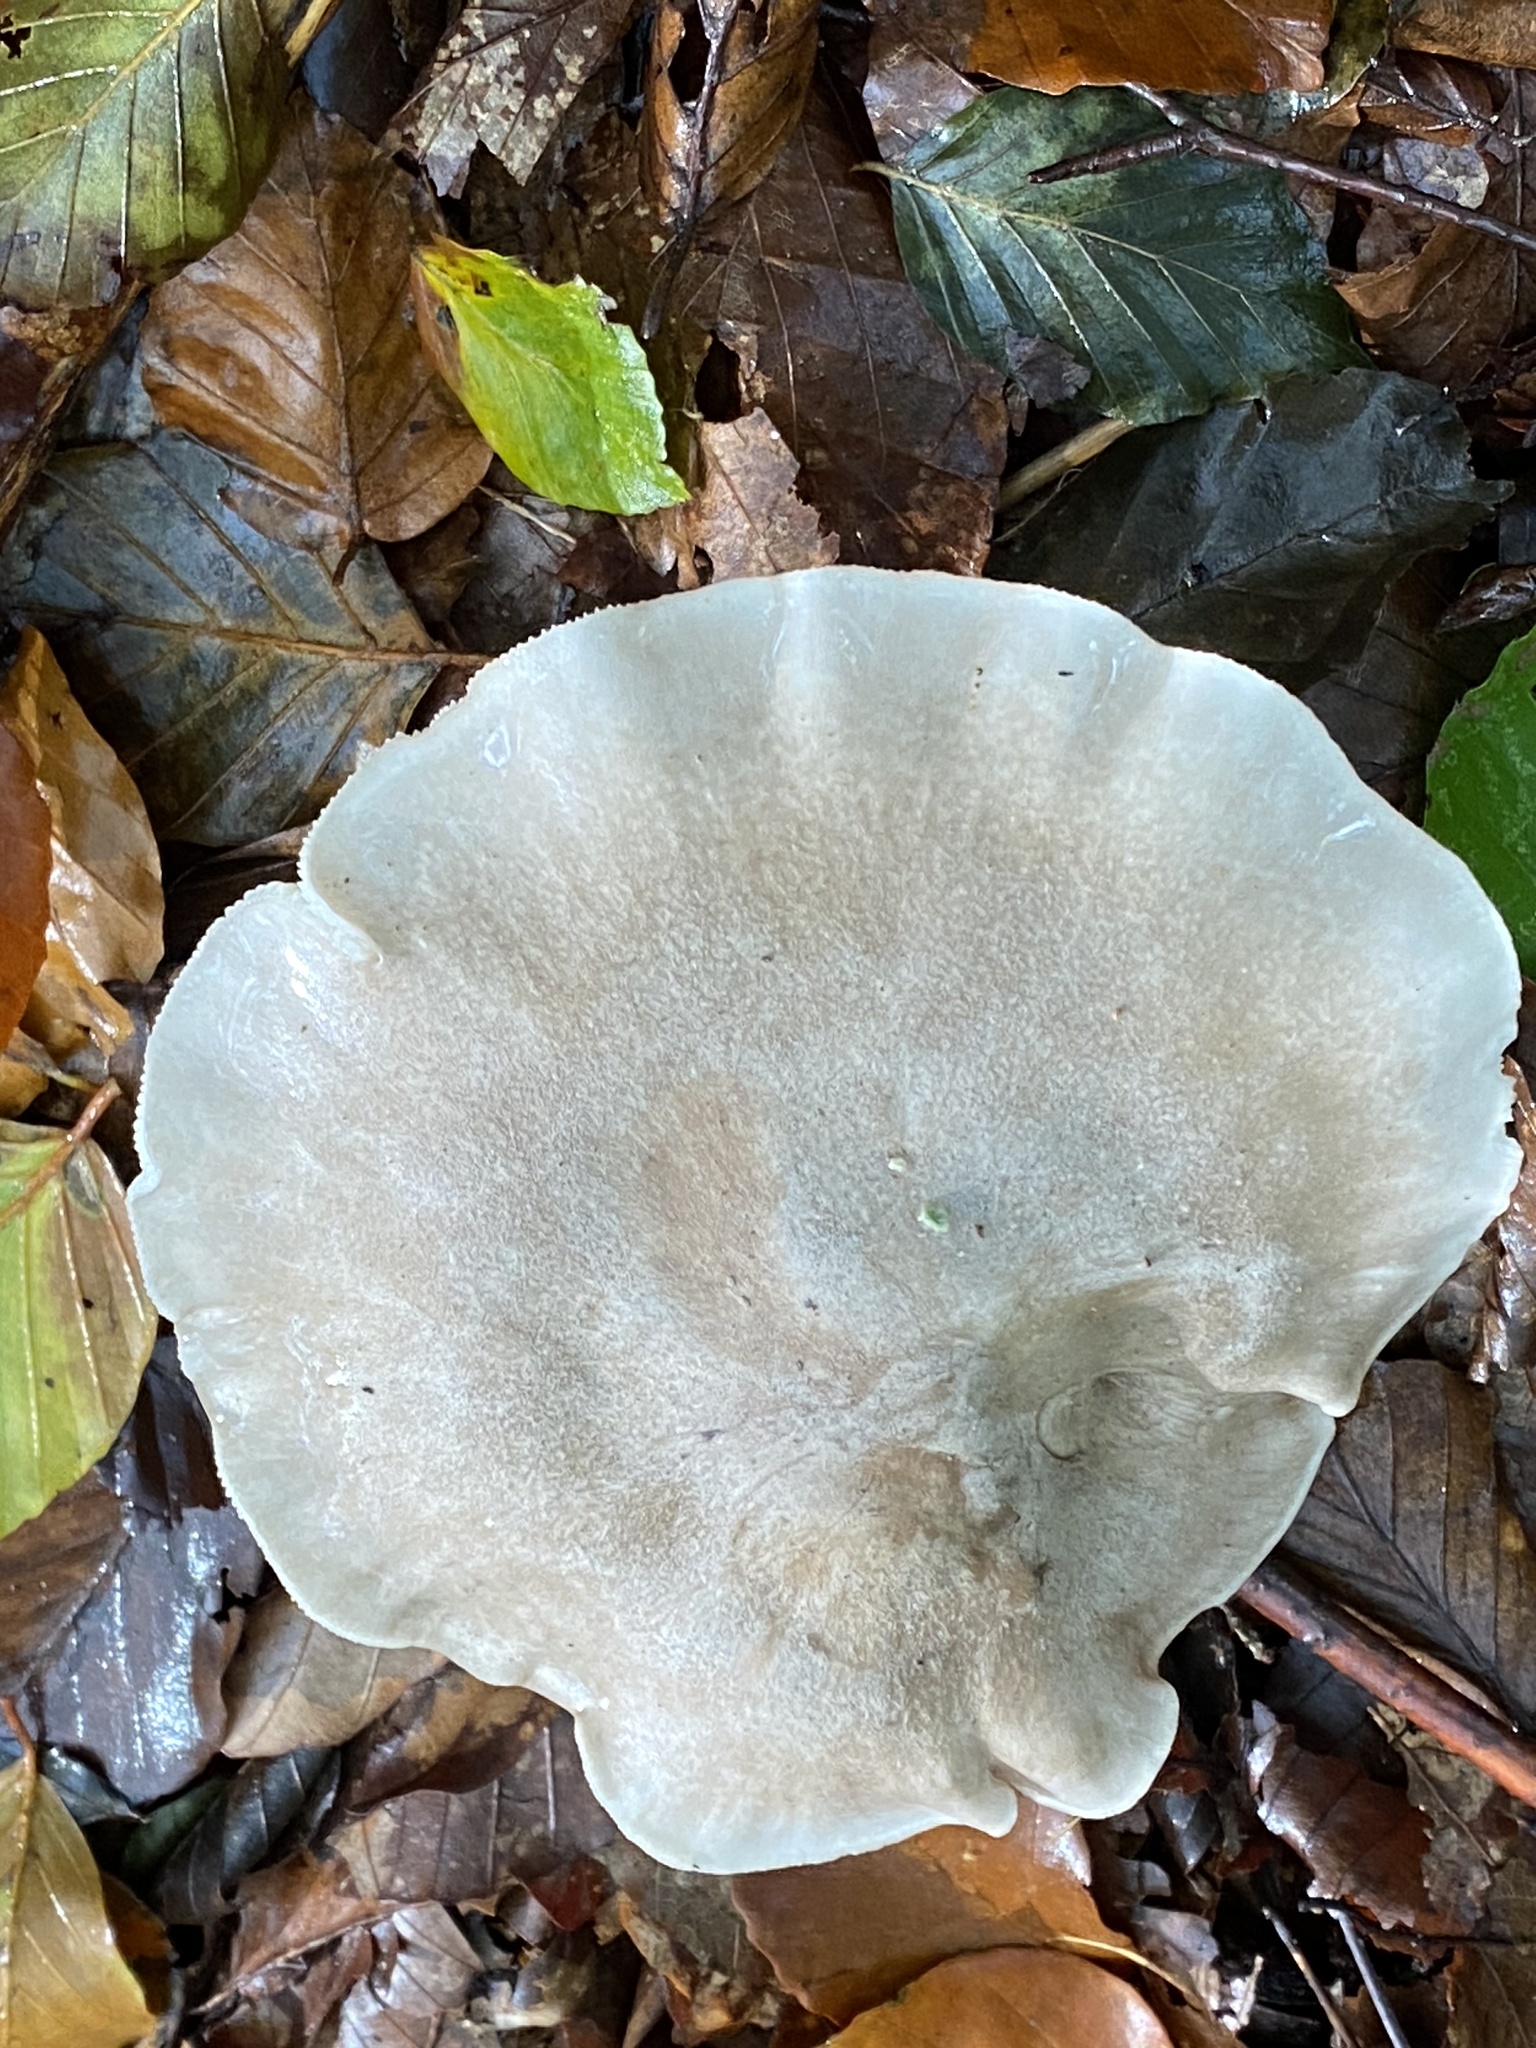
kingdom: Fungi
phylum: Basidiomycota
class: Agaricomycetes
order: Agaricales
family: Tricholomataceae
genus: Clitocybe
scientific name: Clitocybe nebularis
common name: Clouded agaric
